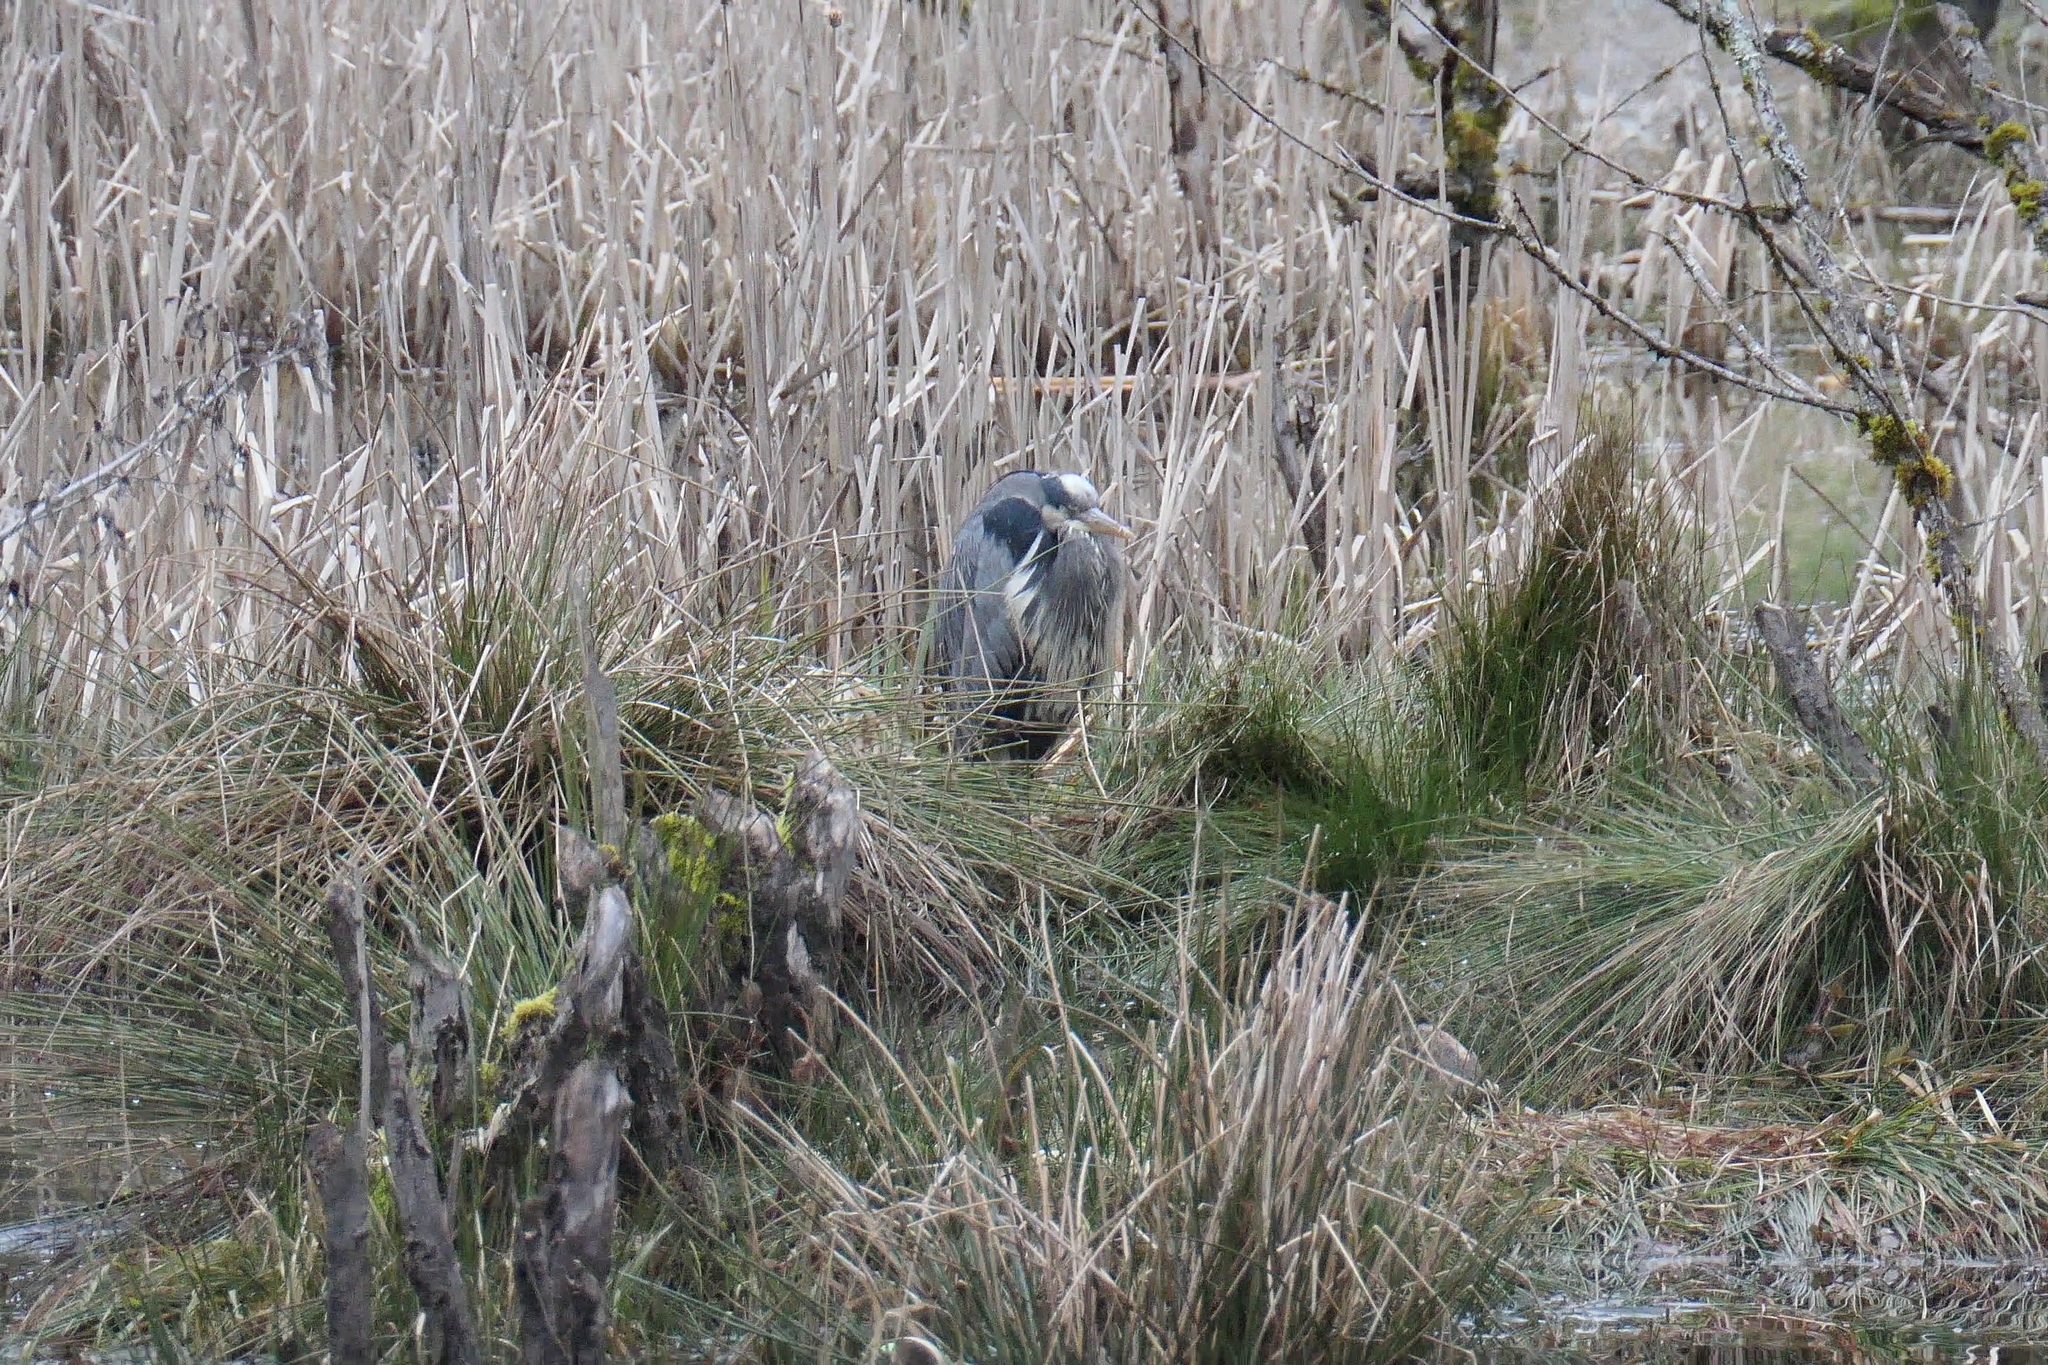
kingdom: Animalia
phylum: Chordata
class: Aves
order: Pelecaniformes
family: Ardeidae
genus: Ardea
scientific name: Ardea herodias
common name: Great blue heron
